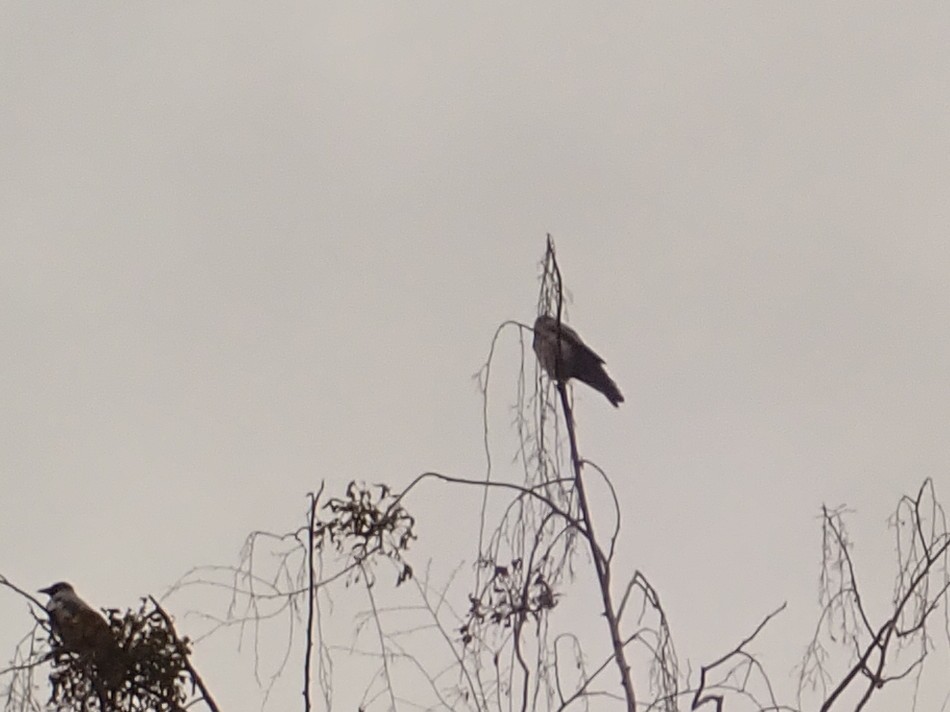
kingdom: Animalia
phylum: Chordata
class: Aves
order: Passeriformes
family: Corvidae
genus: Corvus
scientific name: Corvus cornix
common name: Hooded crow
